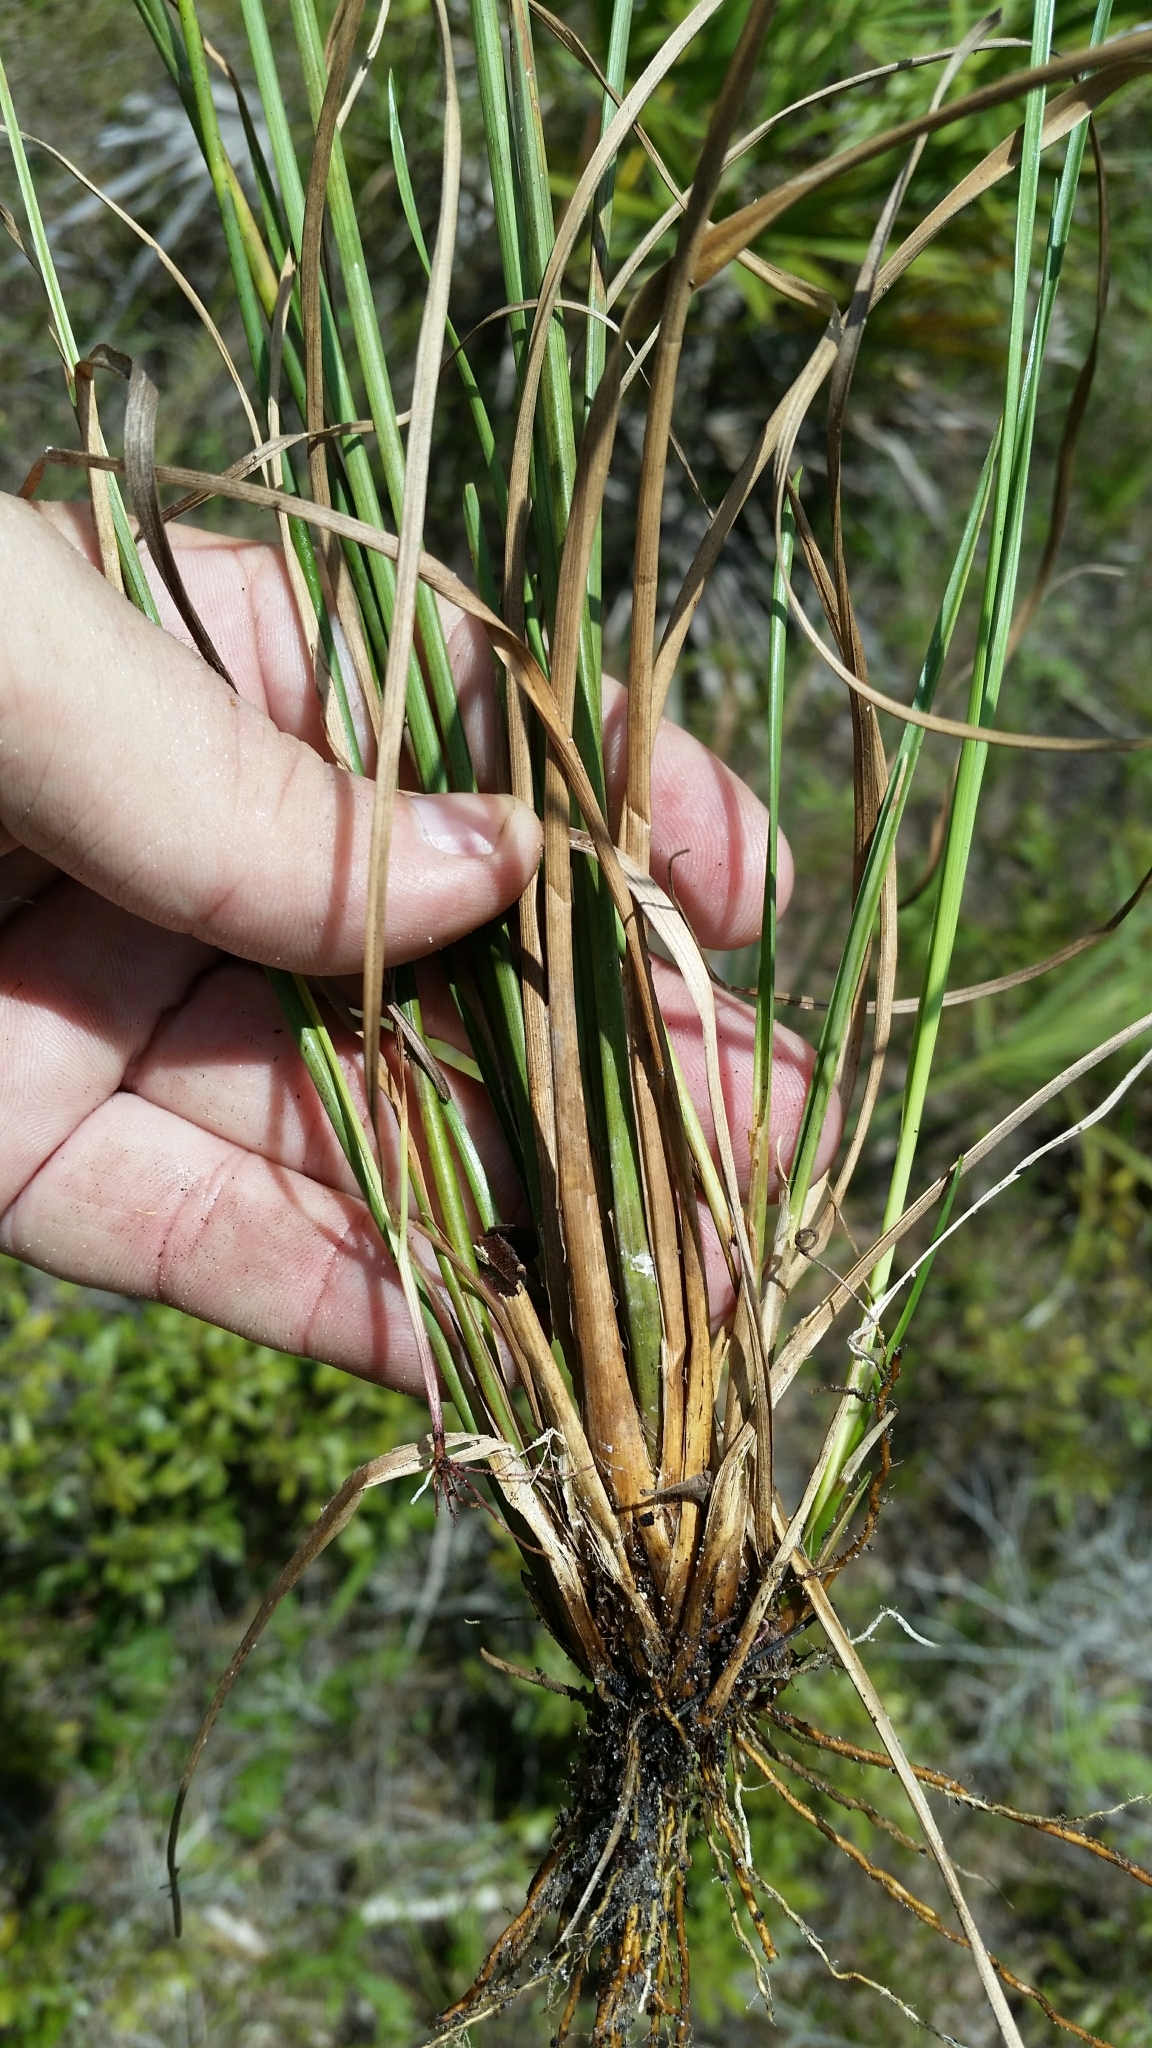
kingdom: Plantae
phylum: Tracheophyta
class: Liliopsida
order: Poales
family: Cyperaceae
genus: Rhynchospora
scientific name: Rhynchospora fascicularis
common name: Fascicled beak sedge
